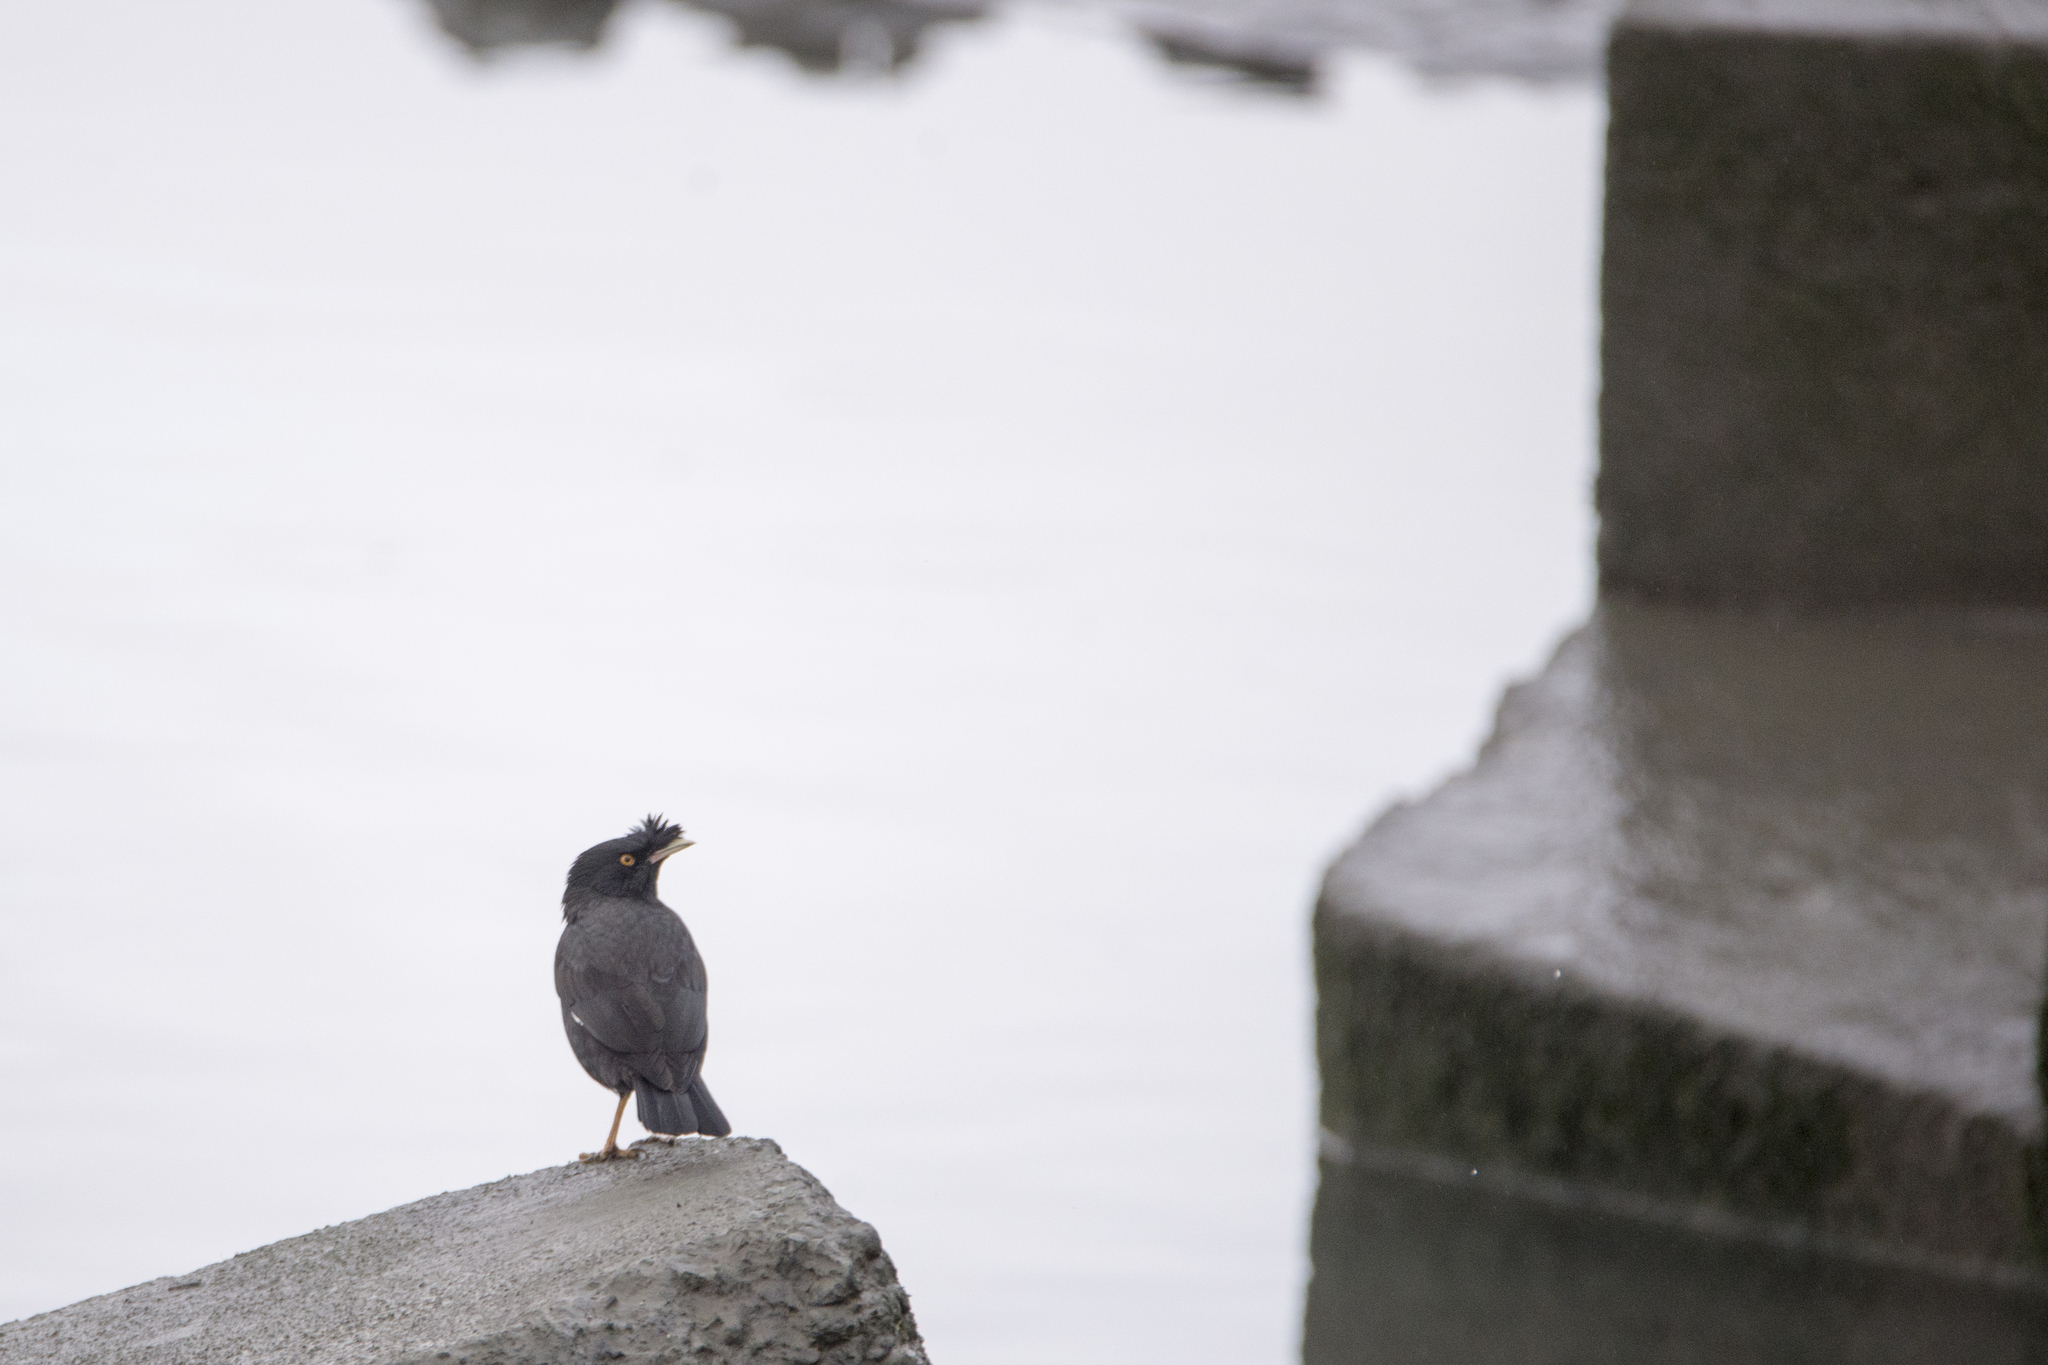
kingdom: Animalia
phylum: Chordata
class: Aves
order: Passeriformes
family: Sturnidae
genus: Acridotheres
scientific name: Acridotheres cristatellus
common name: Crested myna
